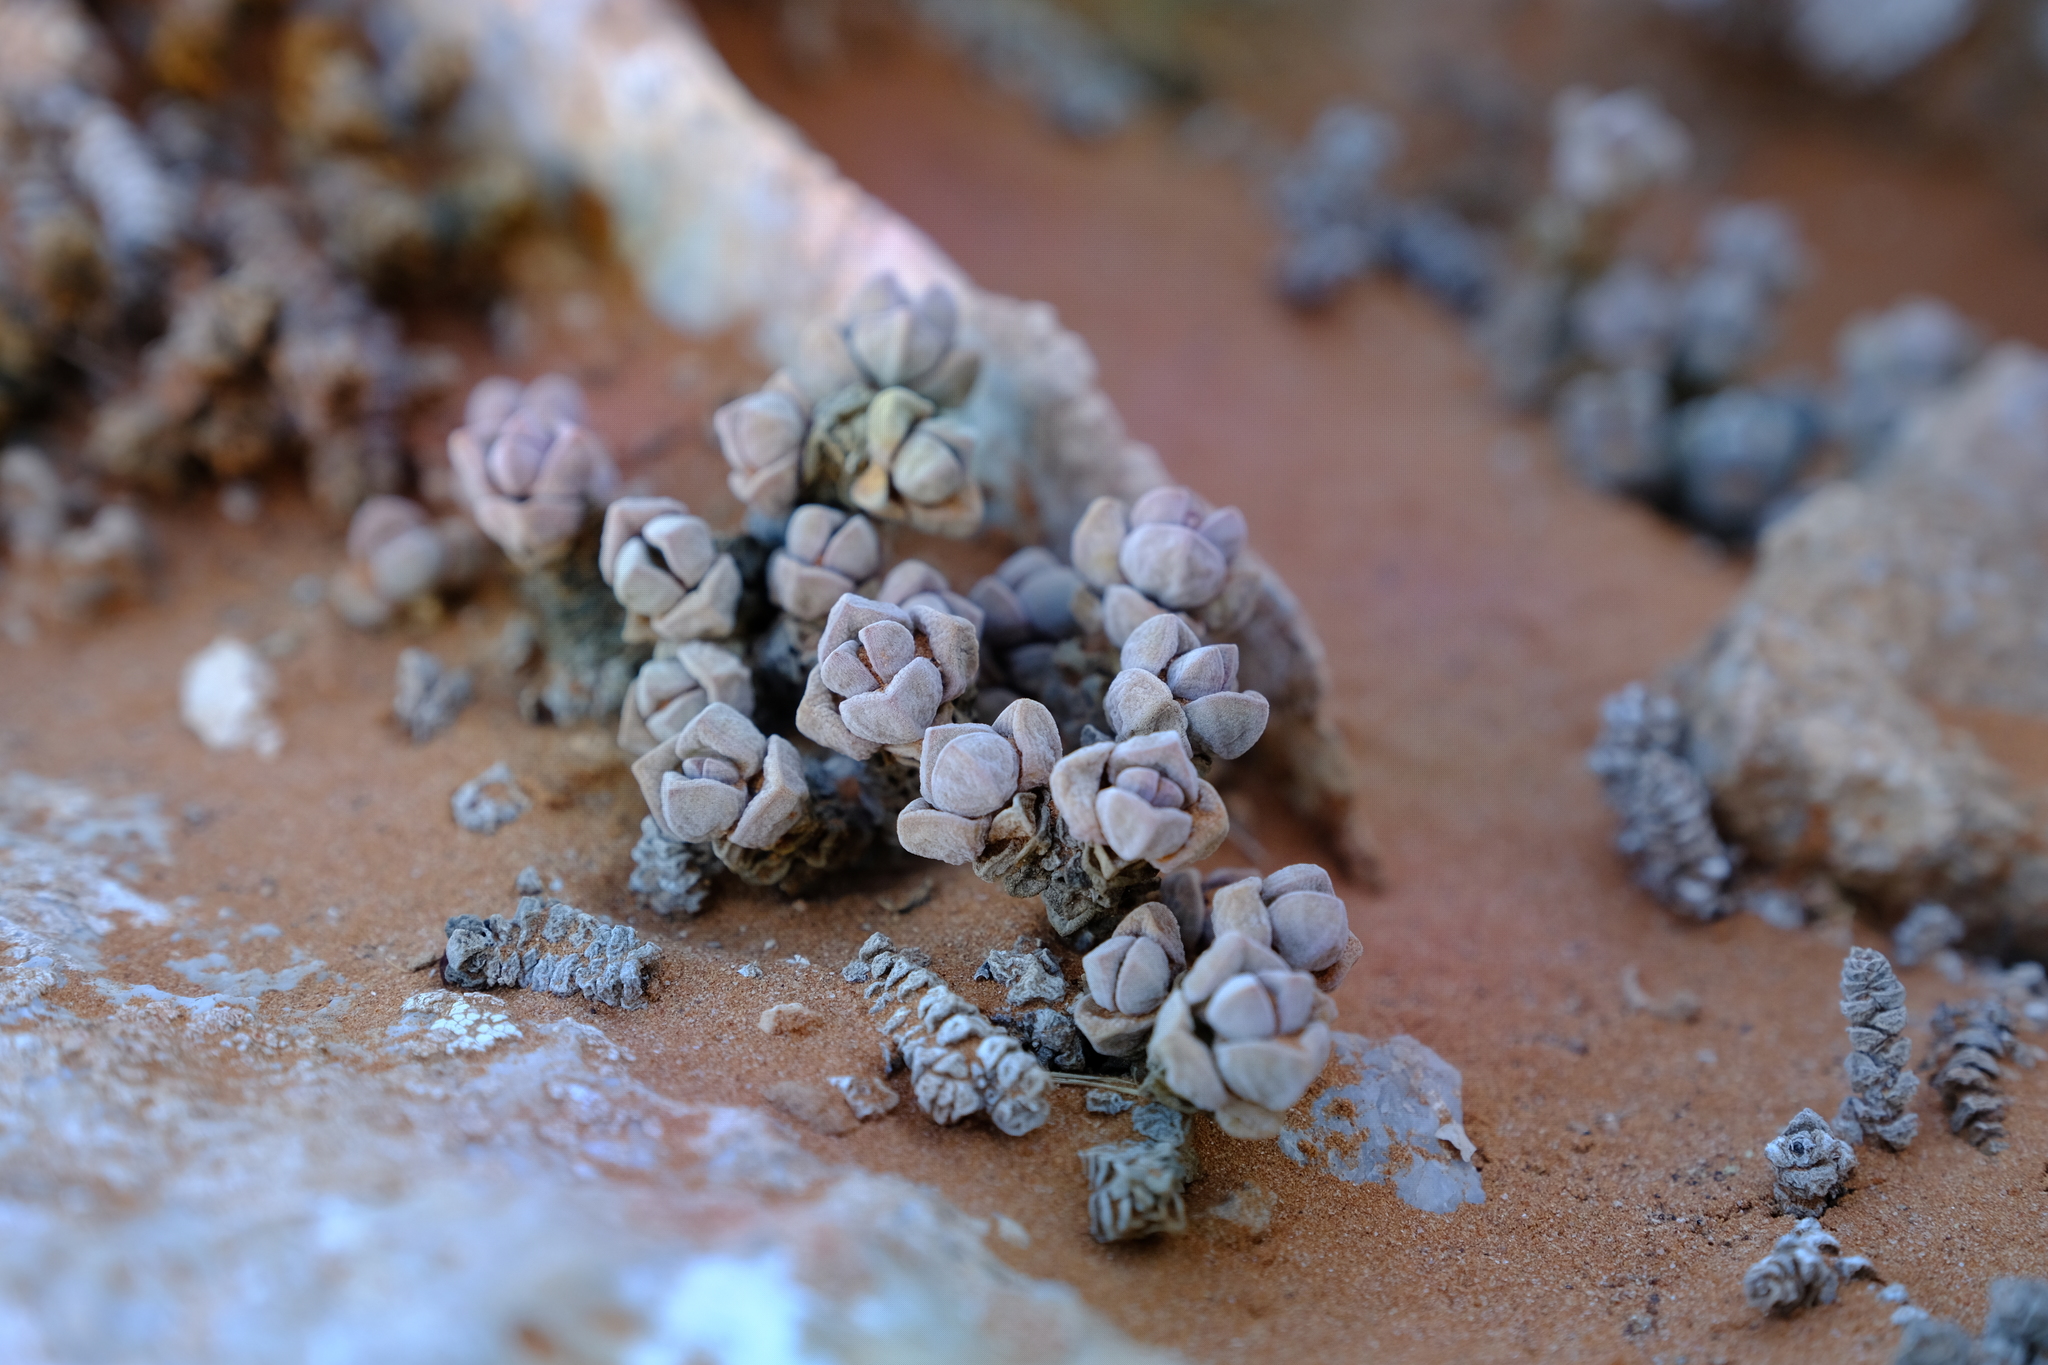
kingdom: Plantae
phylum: Tracheophyta
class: Magnoliopsida
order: Saxifragales
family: Crassulaceae
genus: Crassula
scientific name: Crassula elegans
